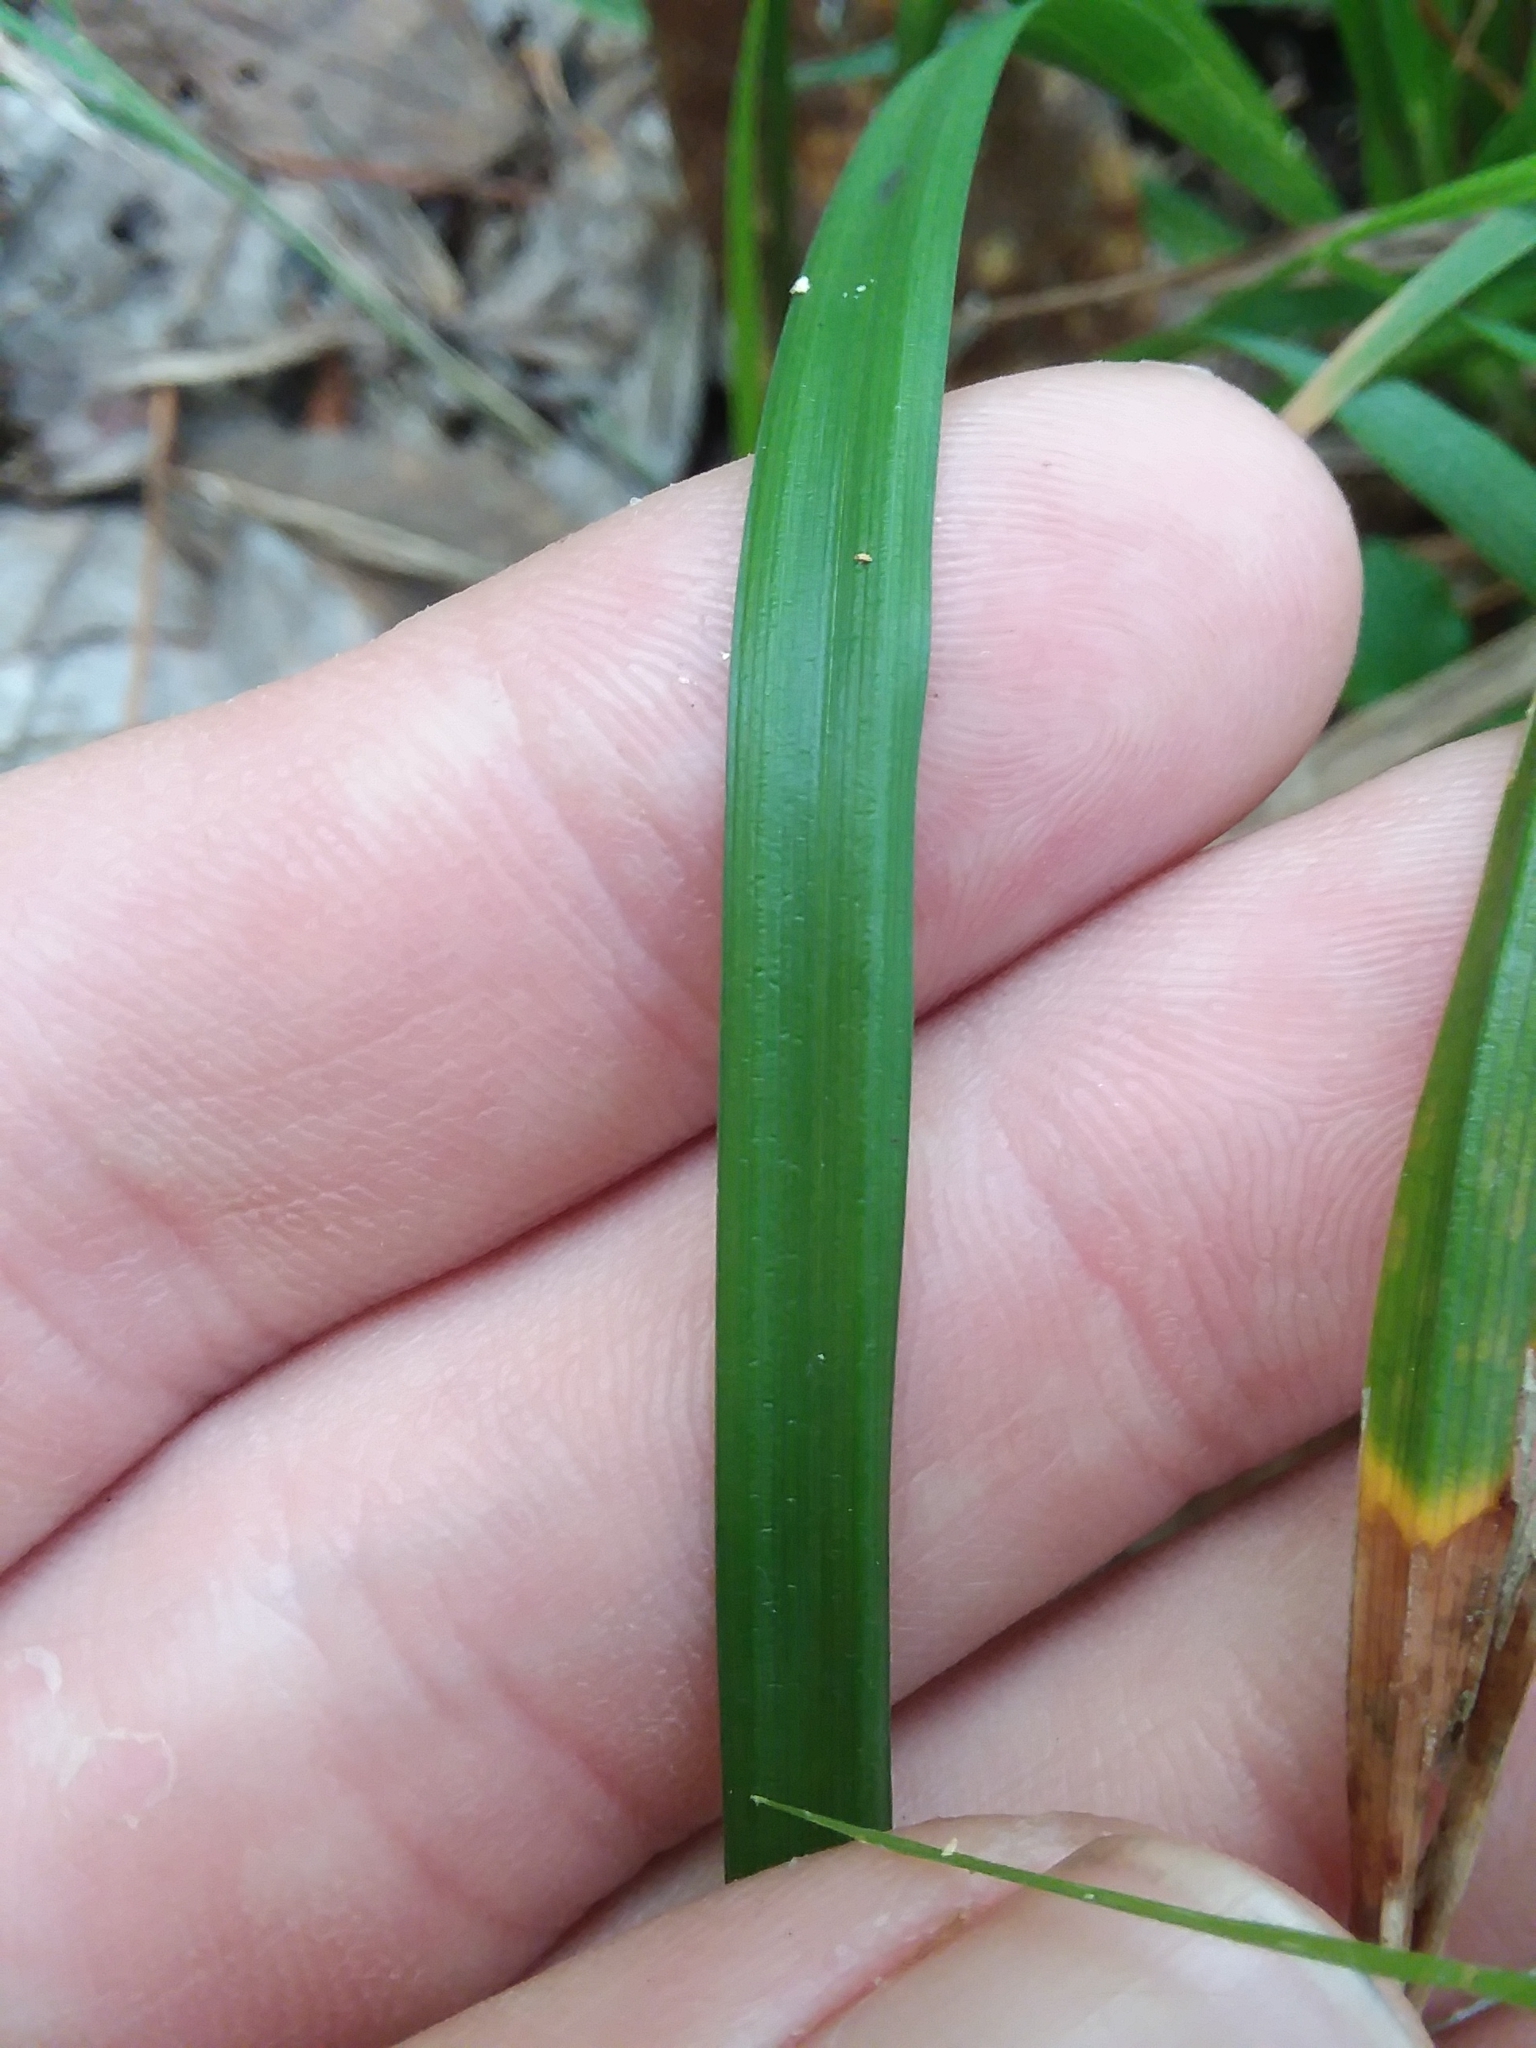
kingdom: Plantae
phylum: Tracheophyta
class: Liliopsida
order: Poales
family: Cyperaceae
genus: Carex
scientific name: Carex lonchocarpa
